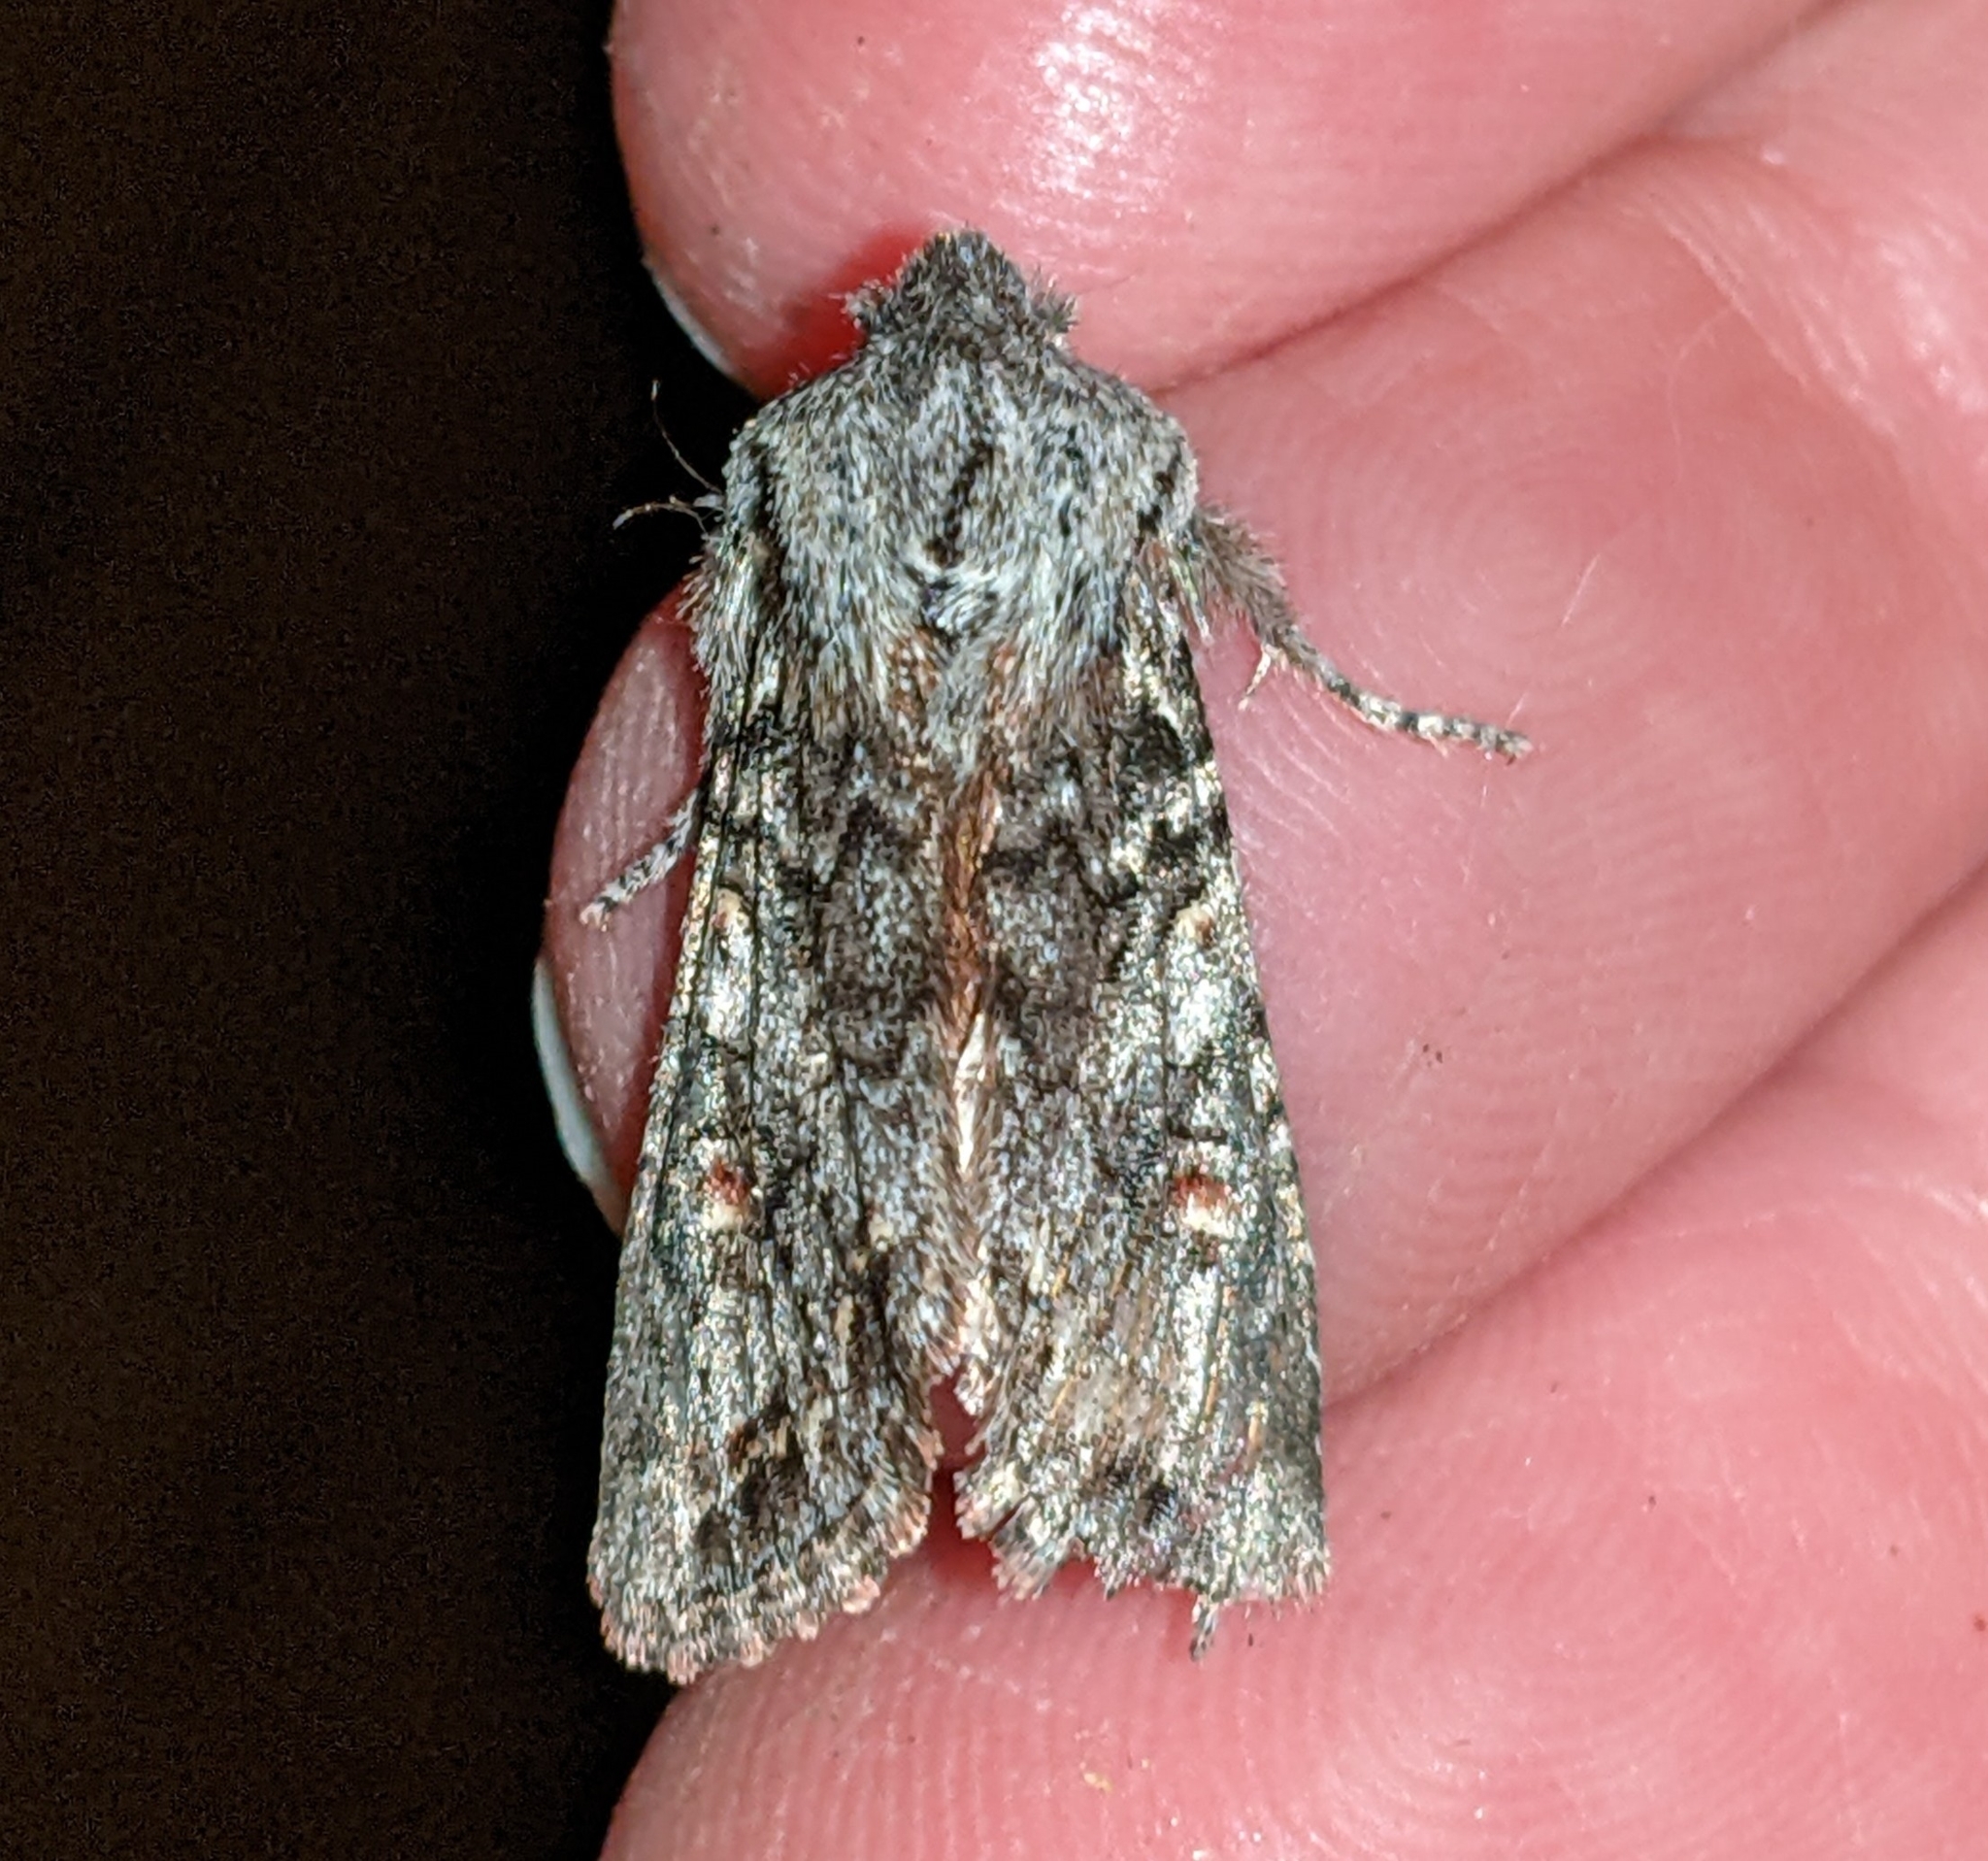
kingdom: Animalia
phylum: Arthropoda
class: Insecta
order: Lepidoptera
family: Noctuidae
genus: Egira
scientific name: Egira hiemalis
